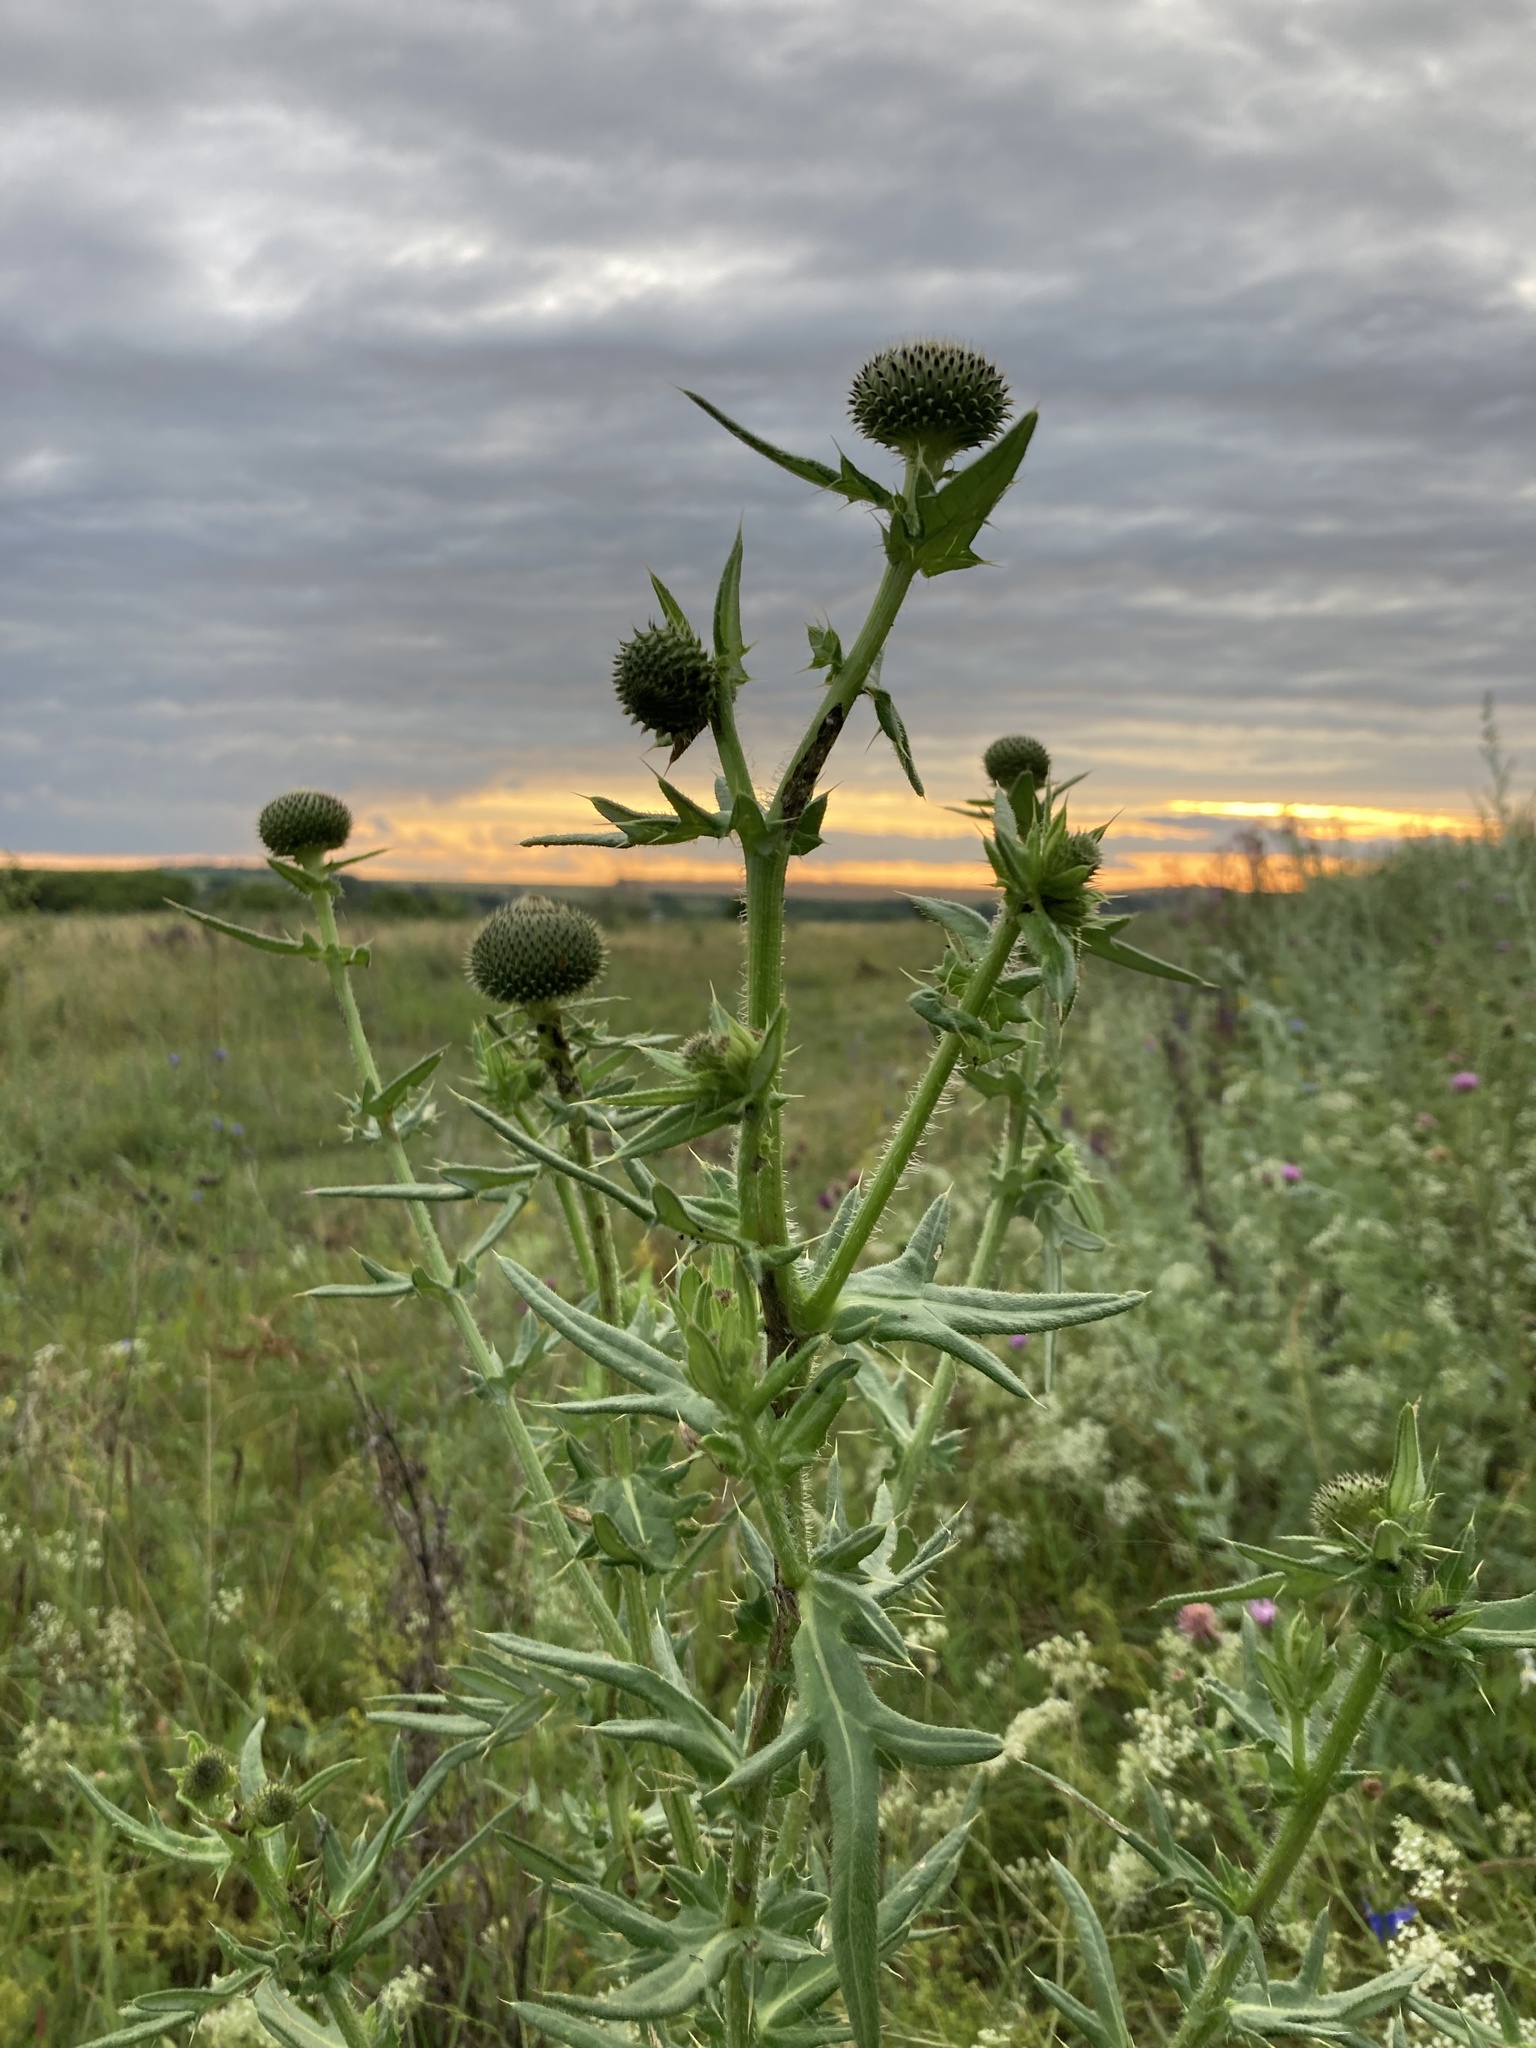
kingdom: Plantae
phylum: Tracheophyta
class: Magnoliopsida
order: Asterales
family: Asteraceae
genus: Cirsium
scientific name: Cirsium serrulatum
